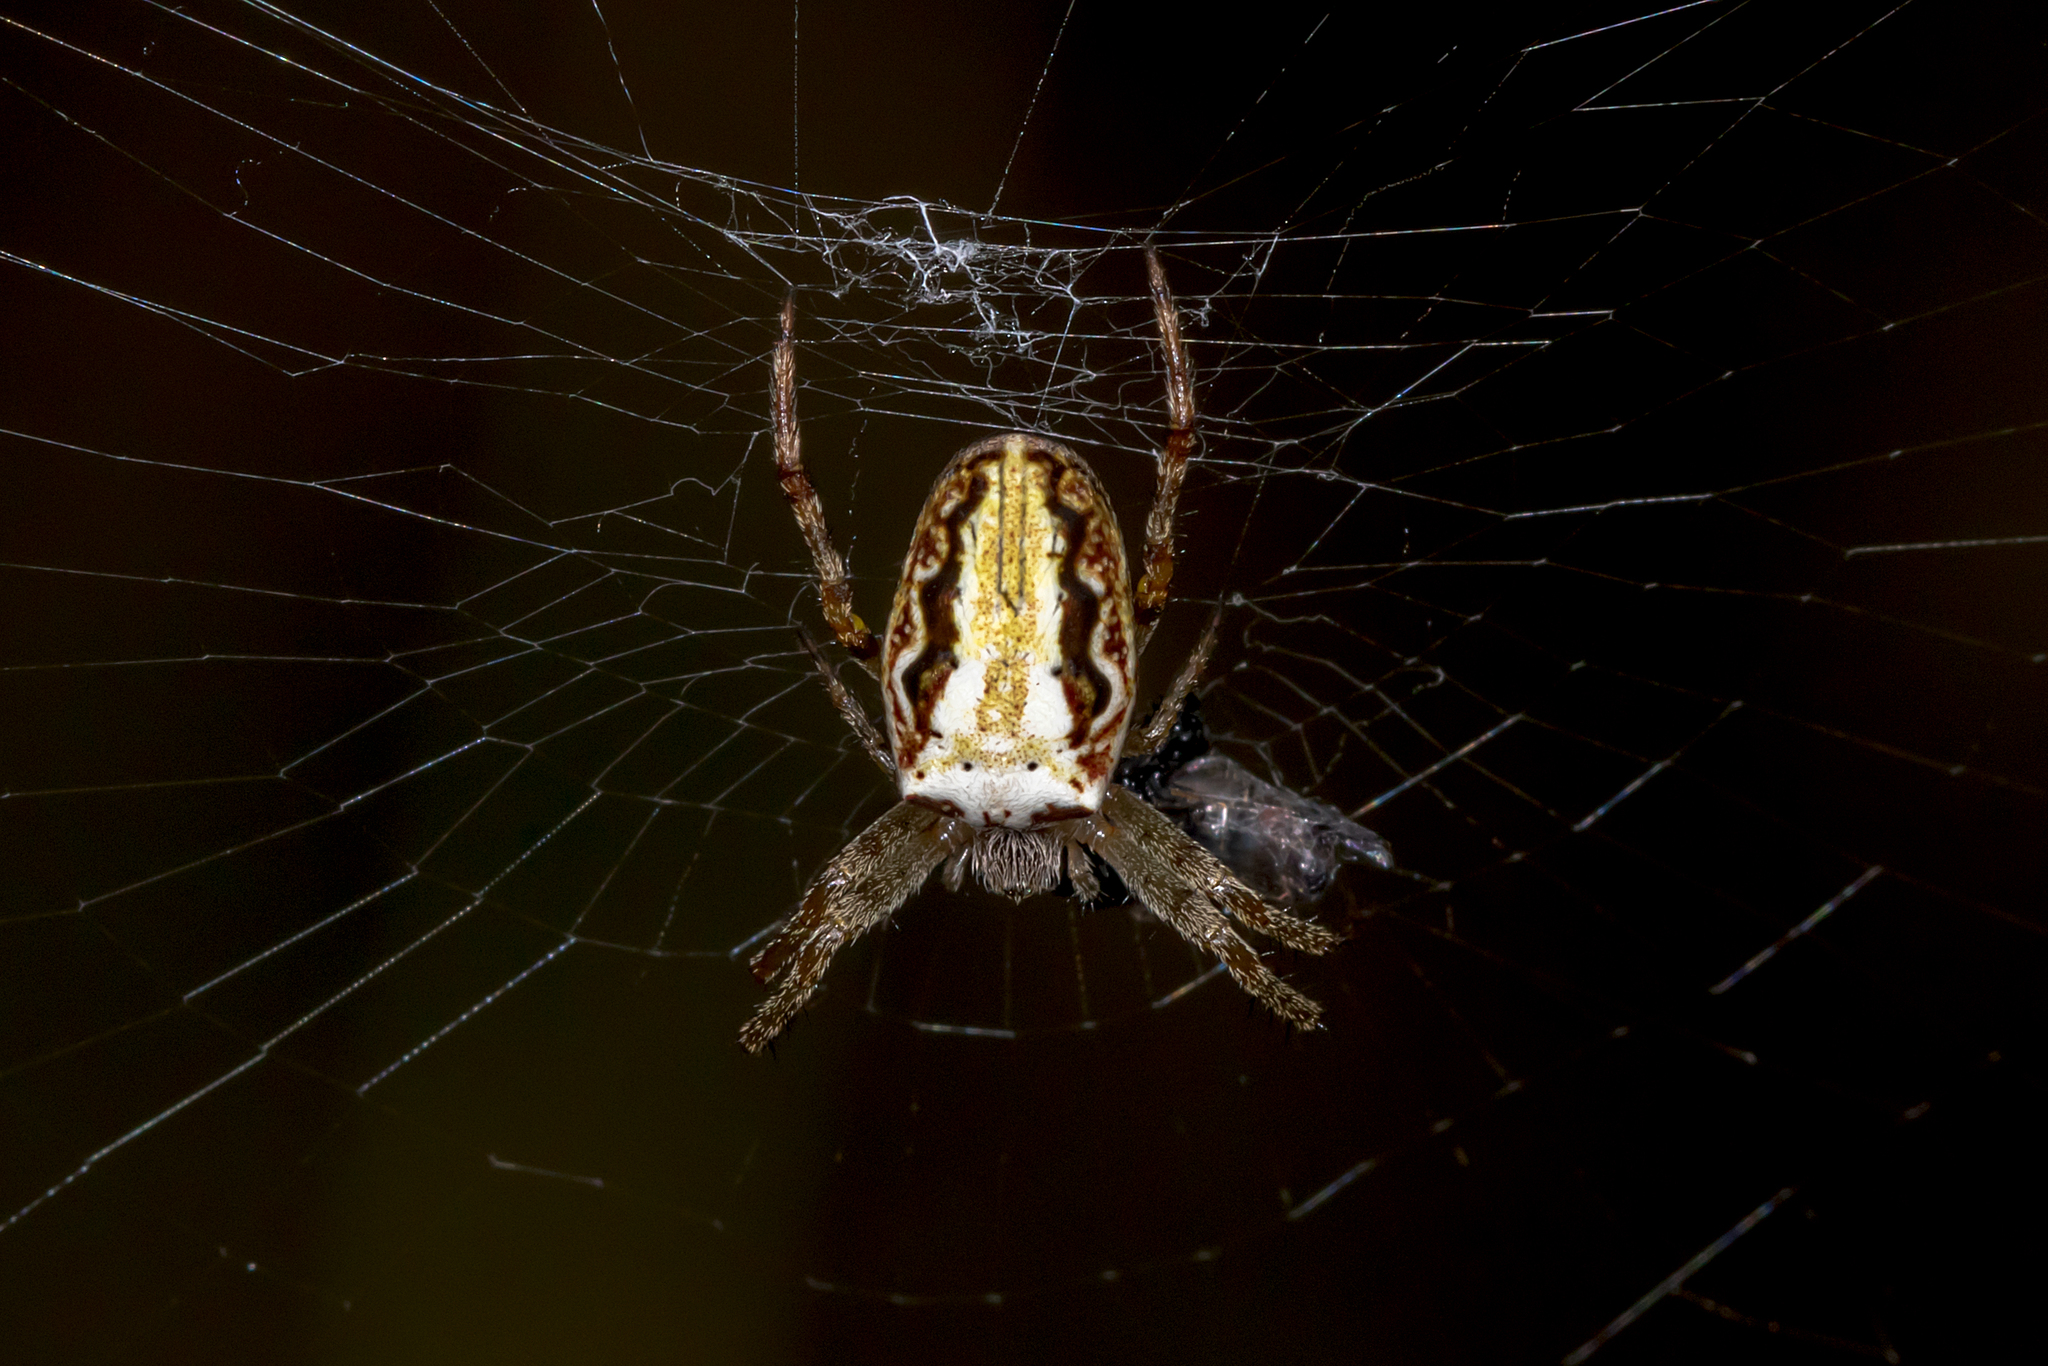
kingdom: Animalia
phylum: Arthropoda
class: Arachnida
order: Araneae
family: Araneidae
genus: Plebs
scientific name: Plebs eburnus
